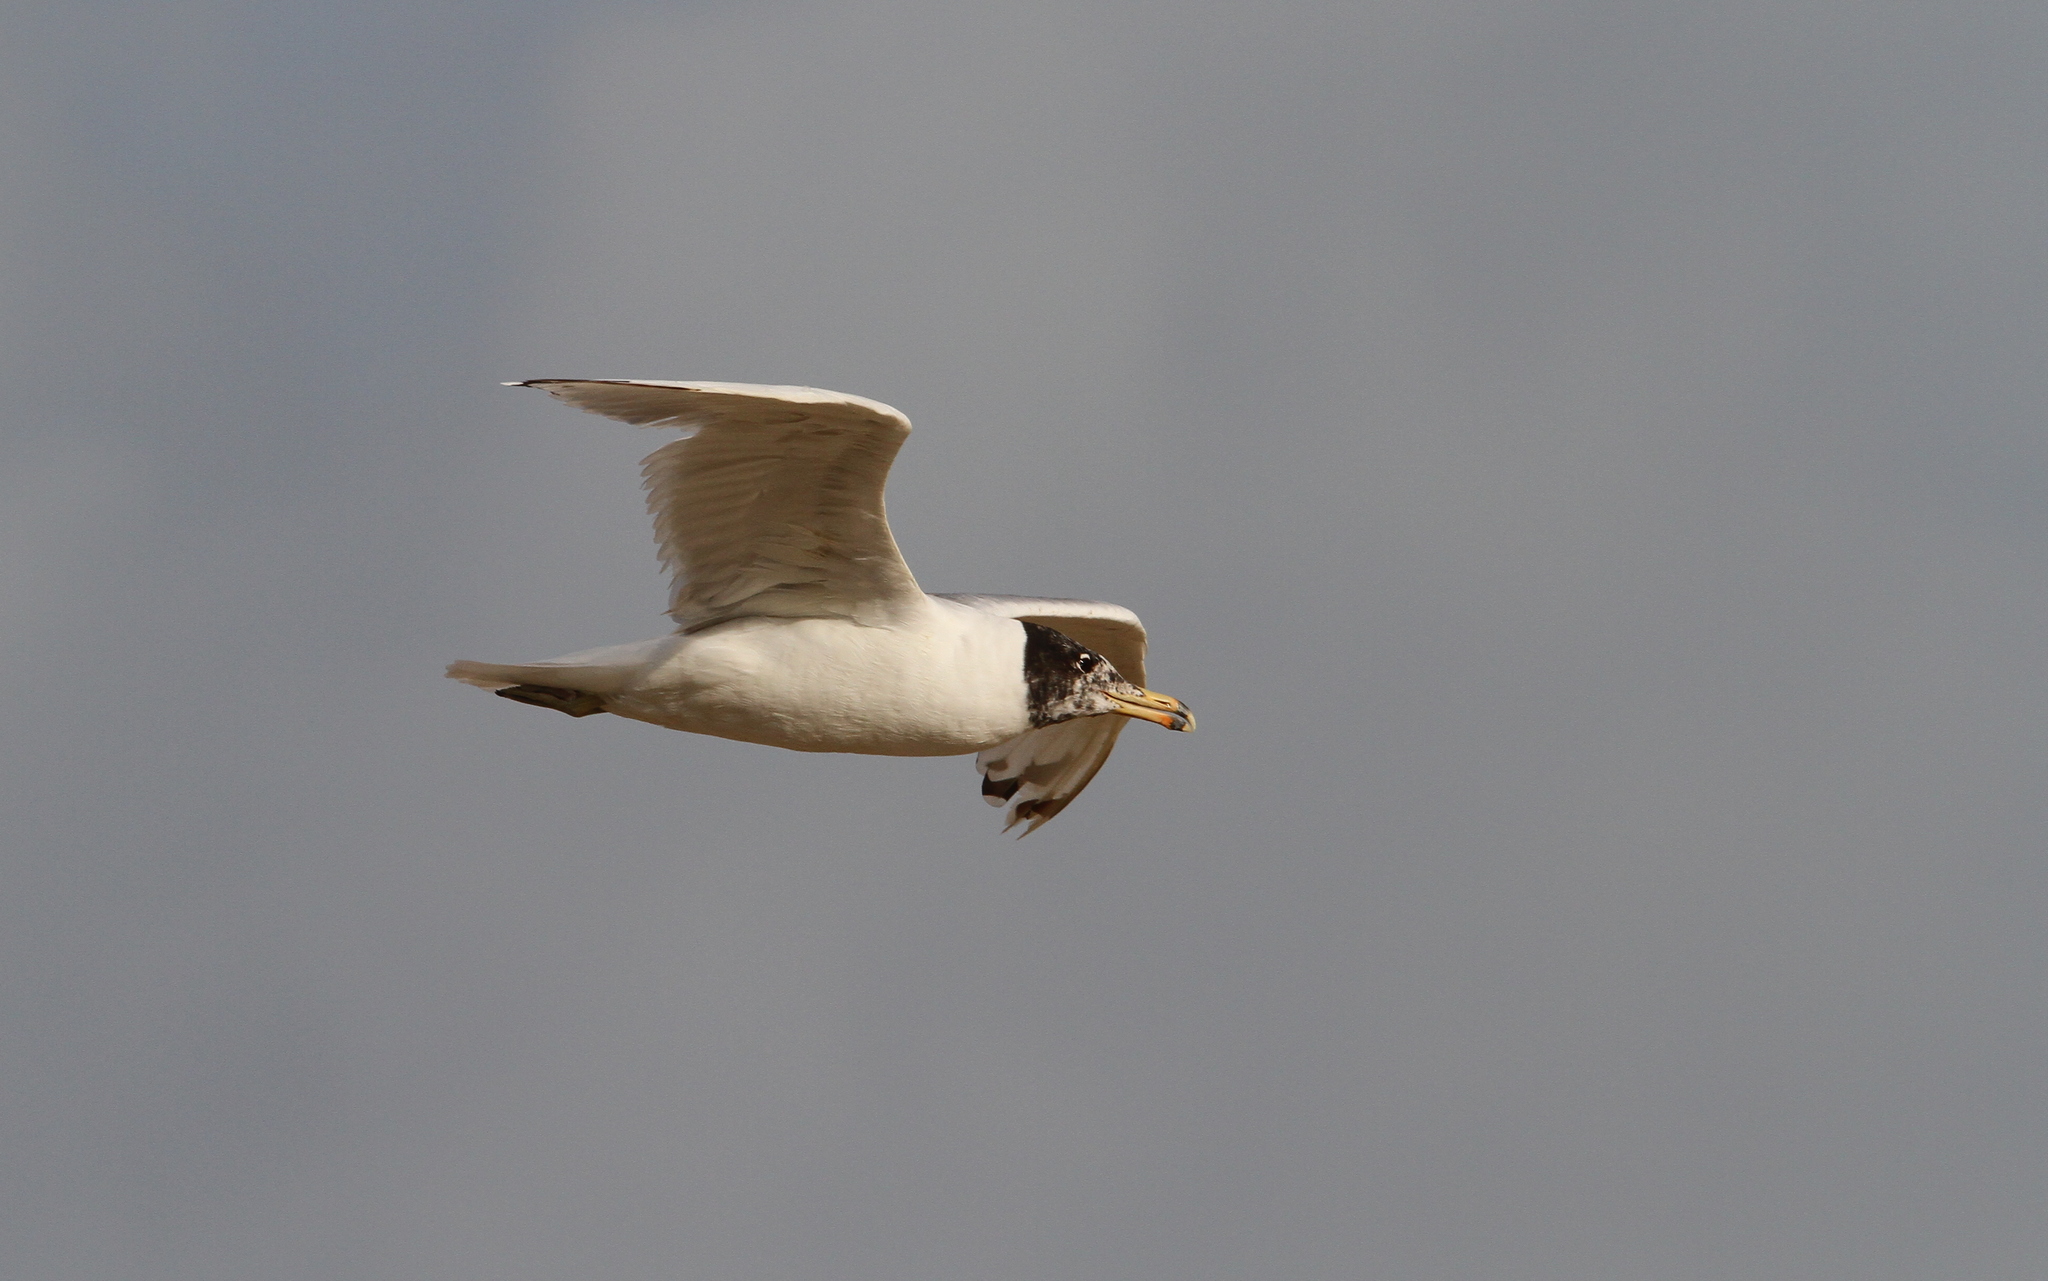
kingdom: Animalia
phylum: Chordata
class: Aves
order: Charadriiformes
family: Laridae
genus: Ichthyaetus
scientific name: Ichthyaetus ichthyaetus
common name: Pallas's gull
